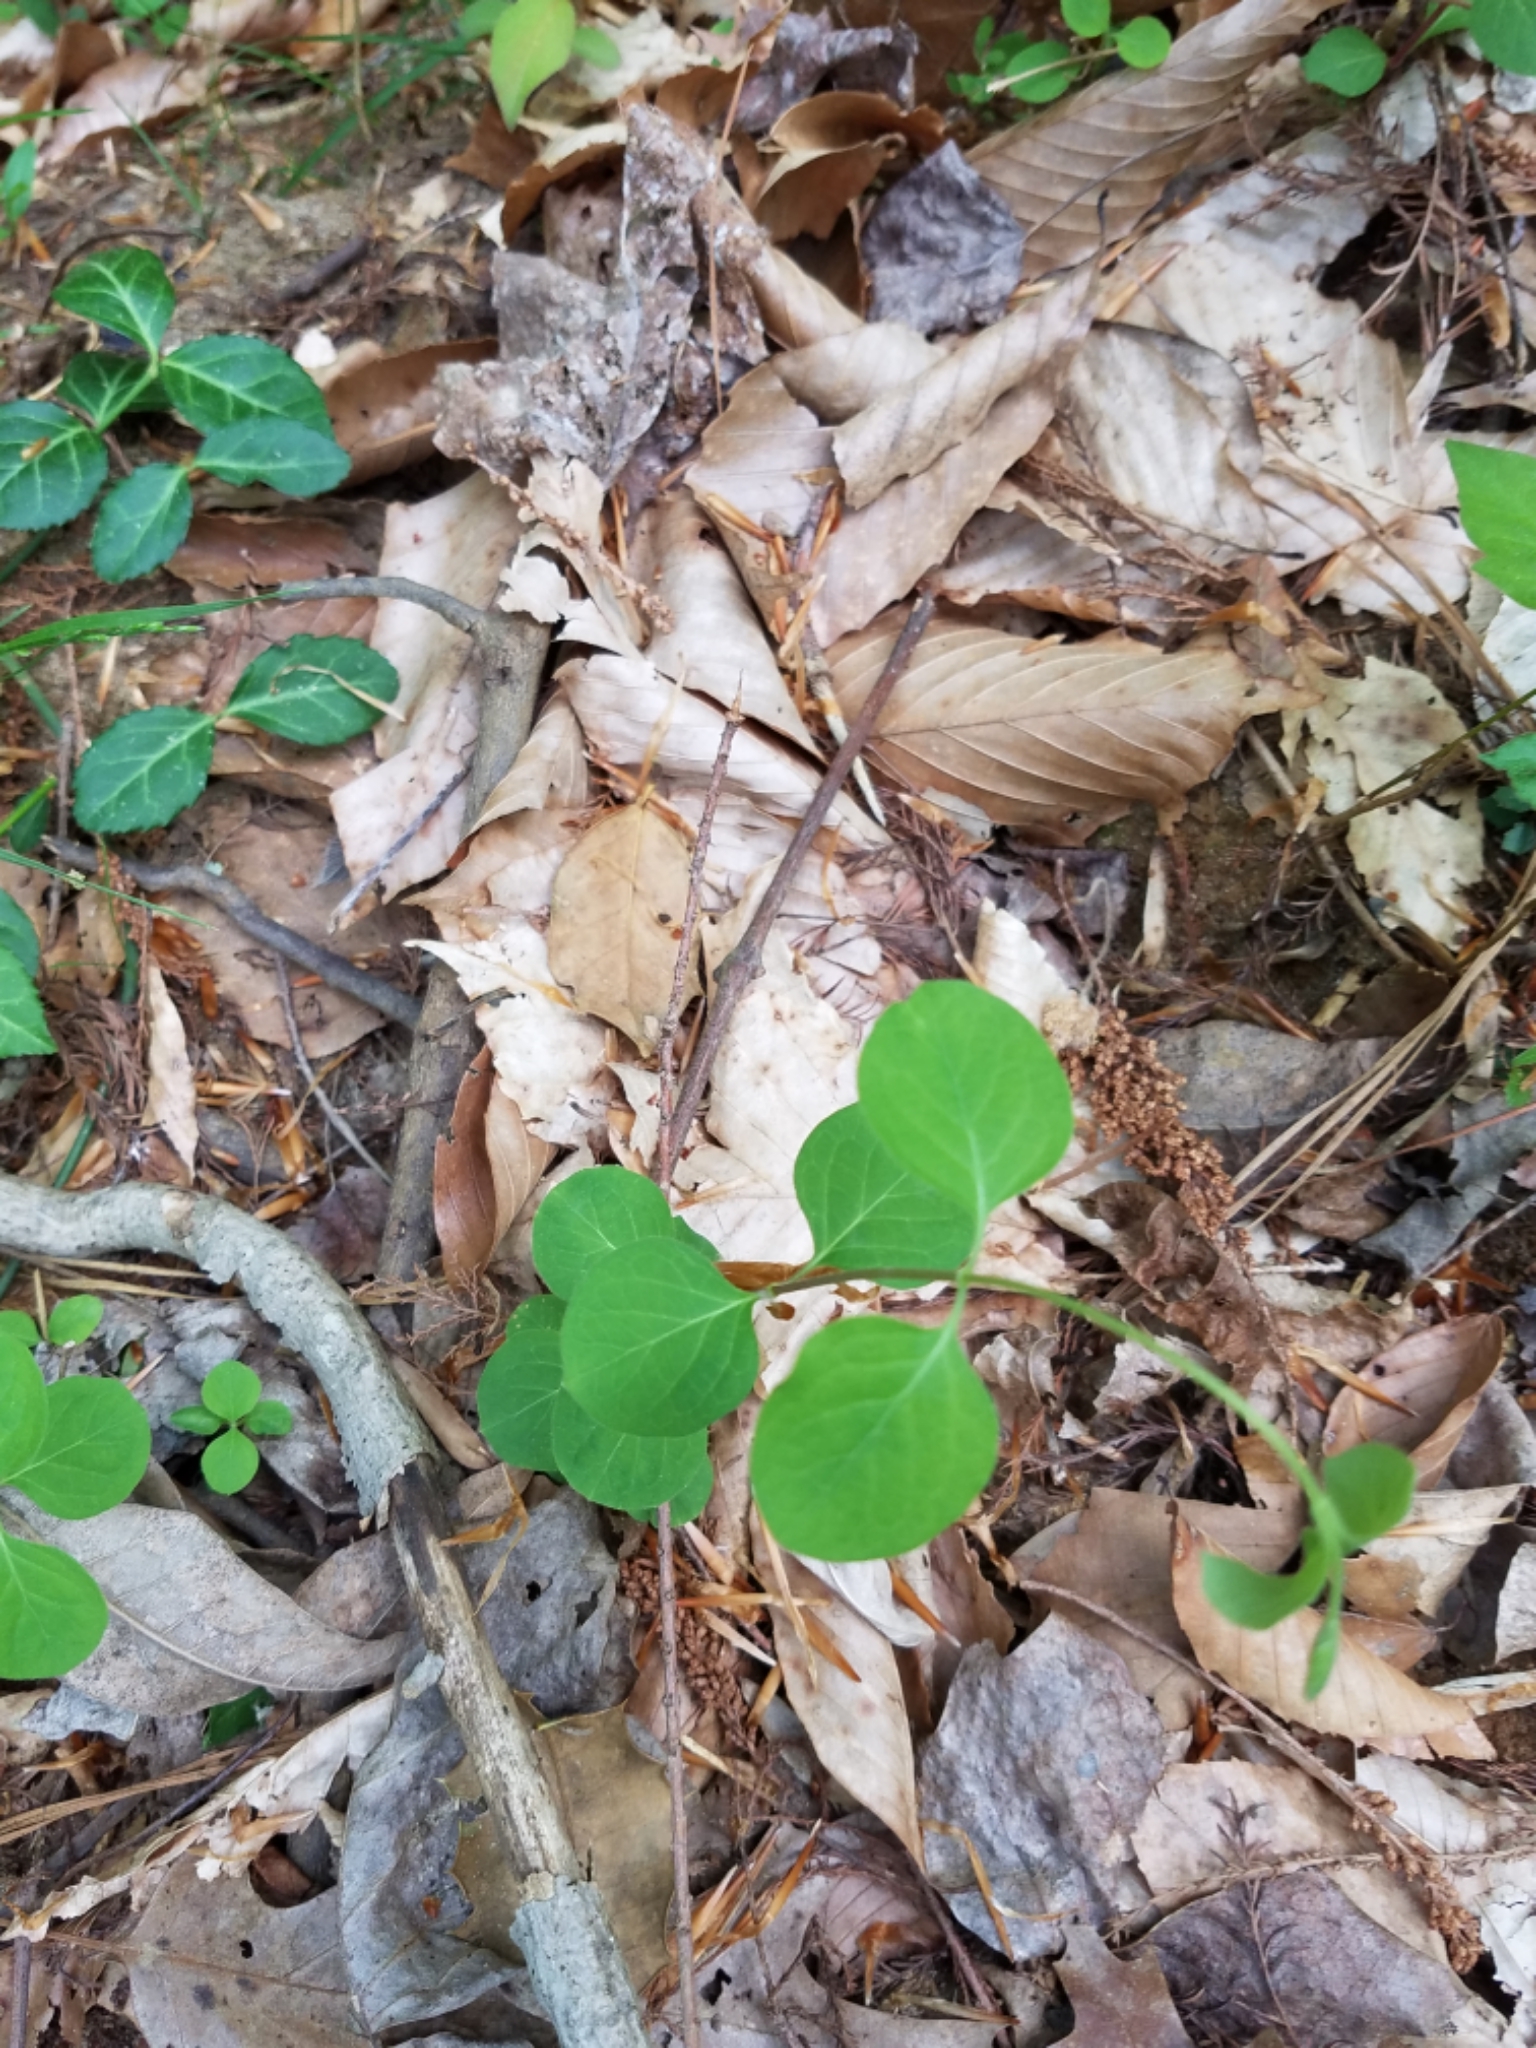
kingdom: Plantae
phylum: Tracheophyta
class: Magnoliopsida
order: Dipsacales
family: Caprifoliaceae
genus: Lonicera
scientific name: Lonicera japonica
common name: Japanese honeysuckle
